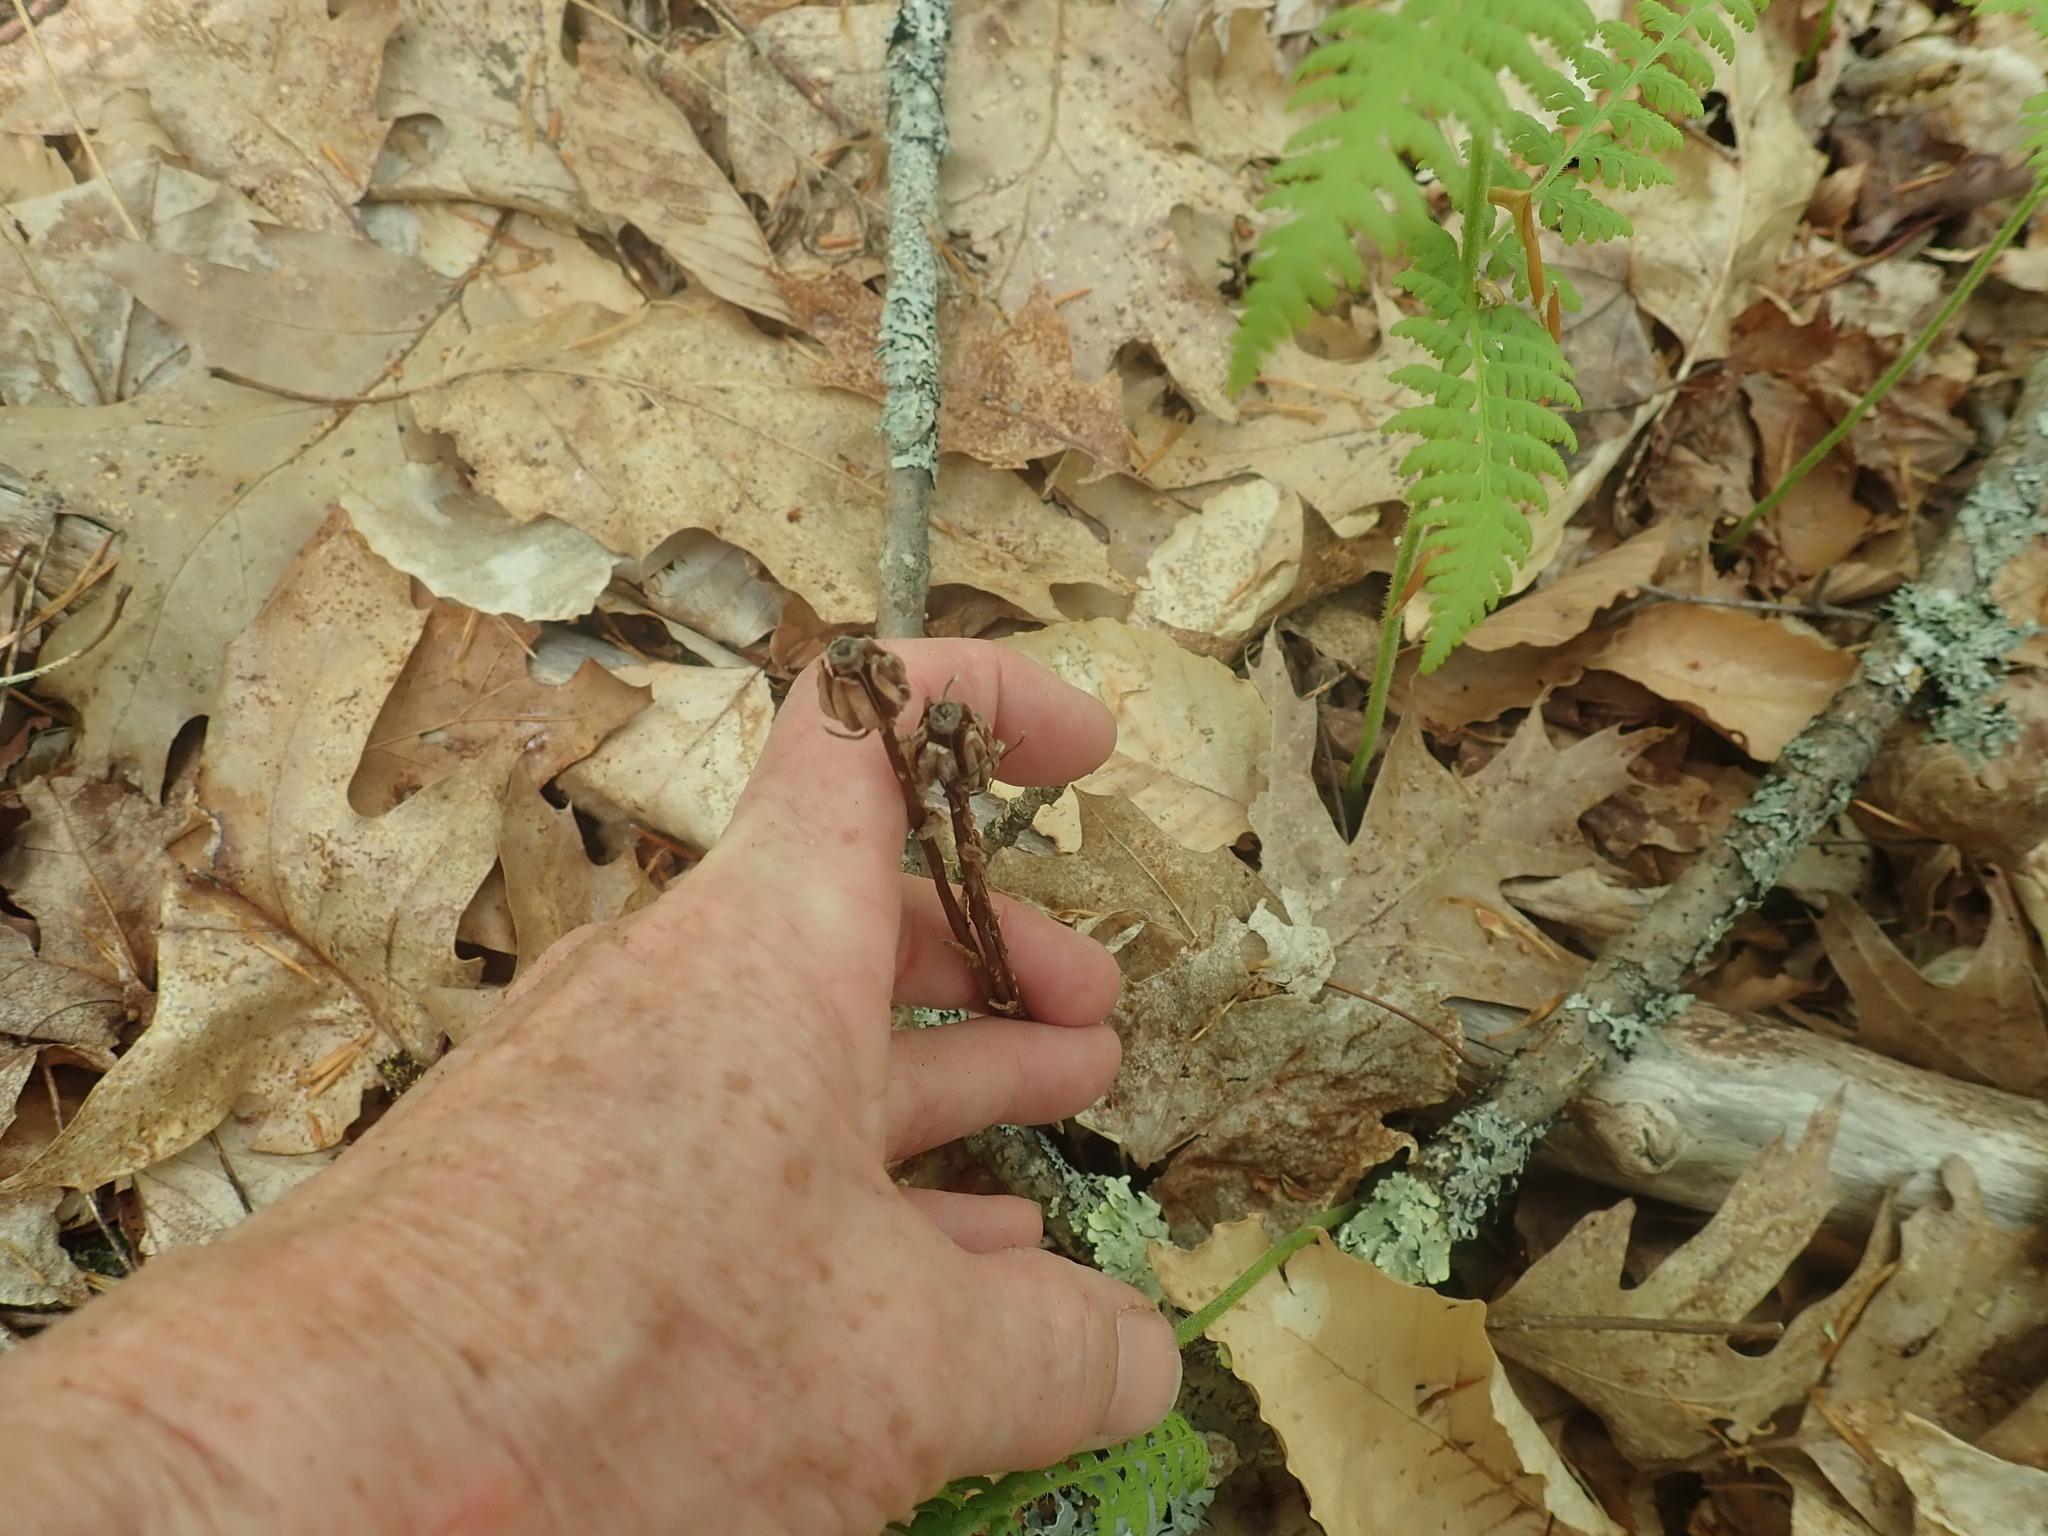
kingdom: Plantae
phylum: Tracheophyta
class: Magnoliopsida
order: Ericales
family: Ericaceae
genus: Monotropa
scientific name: Monotropa uniflora
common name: Convulsion root
